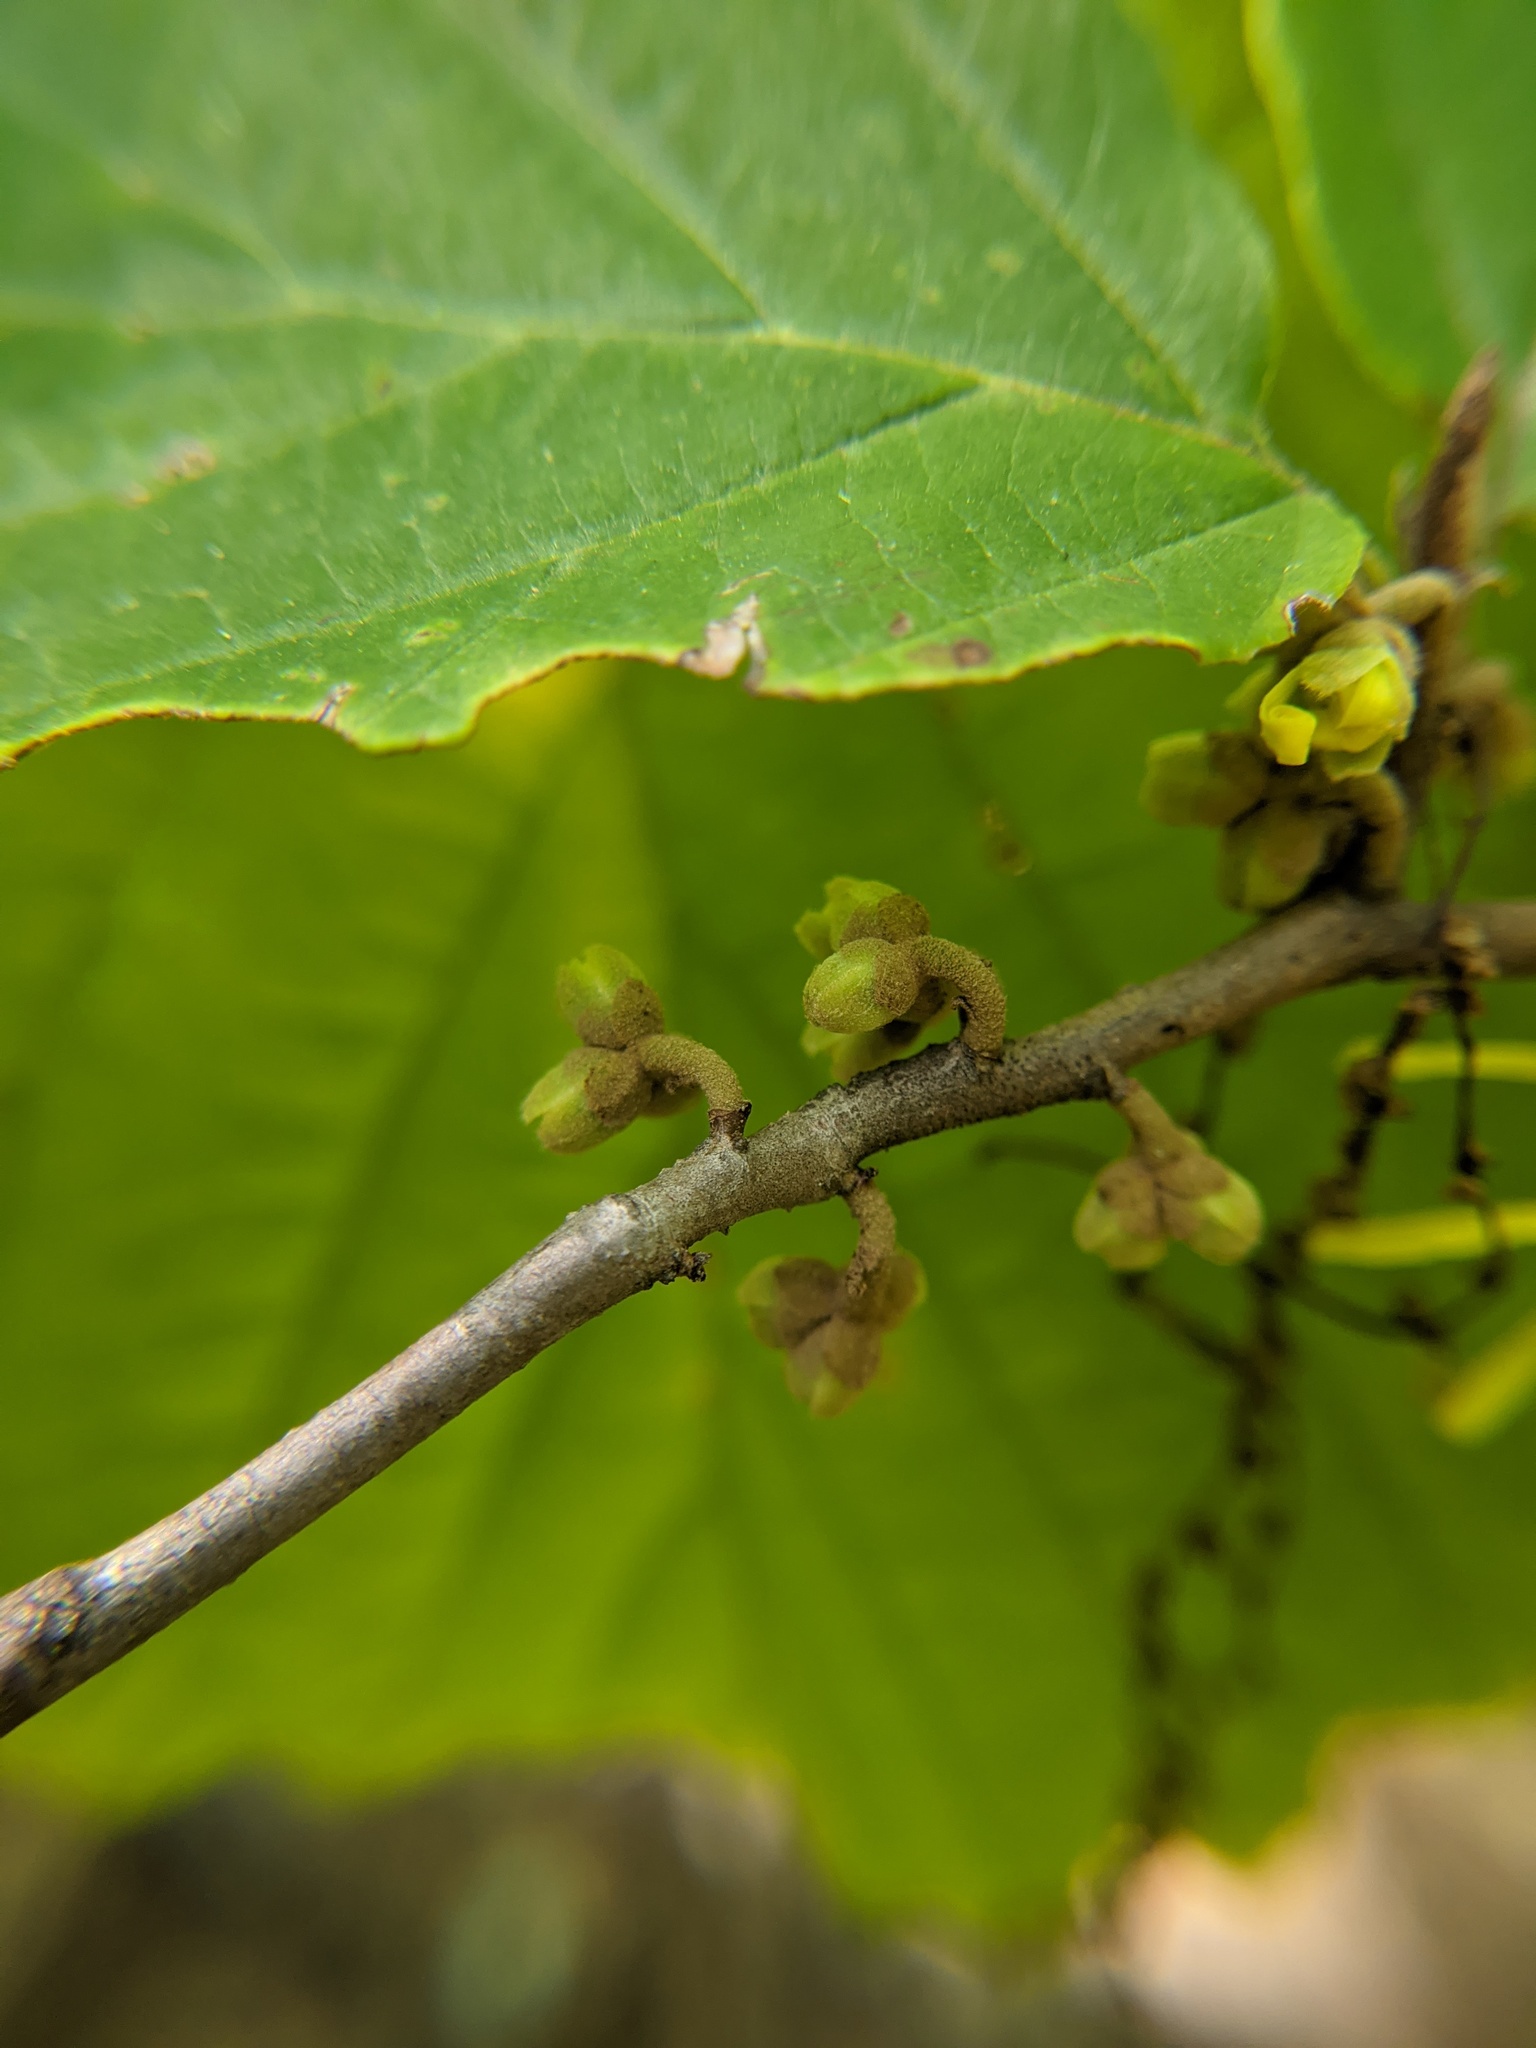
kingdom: Plantae
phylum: Tracheophyta
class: Magnoliopsida
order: Saxifragales
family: Hamamelidaceae
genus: Hamamelis
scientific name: Hamamelis virginiana
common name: Witch-hazel
